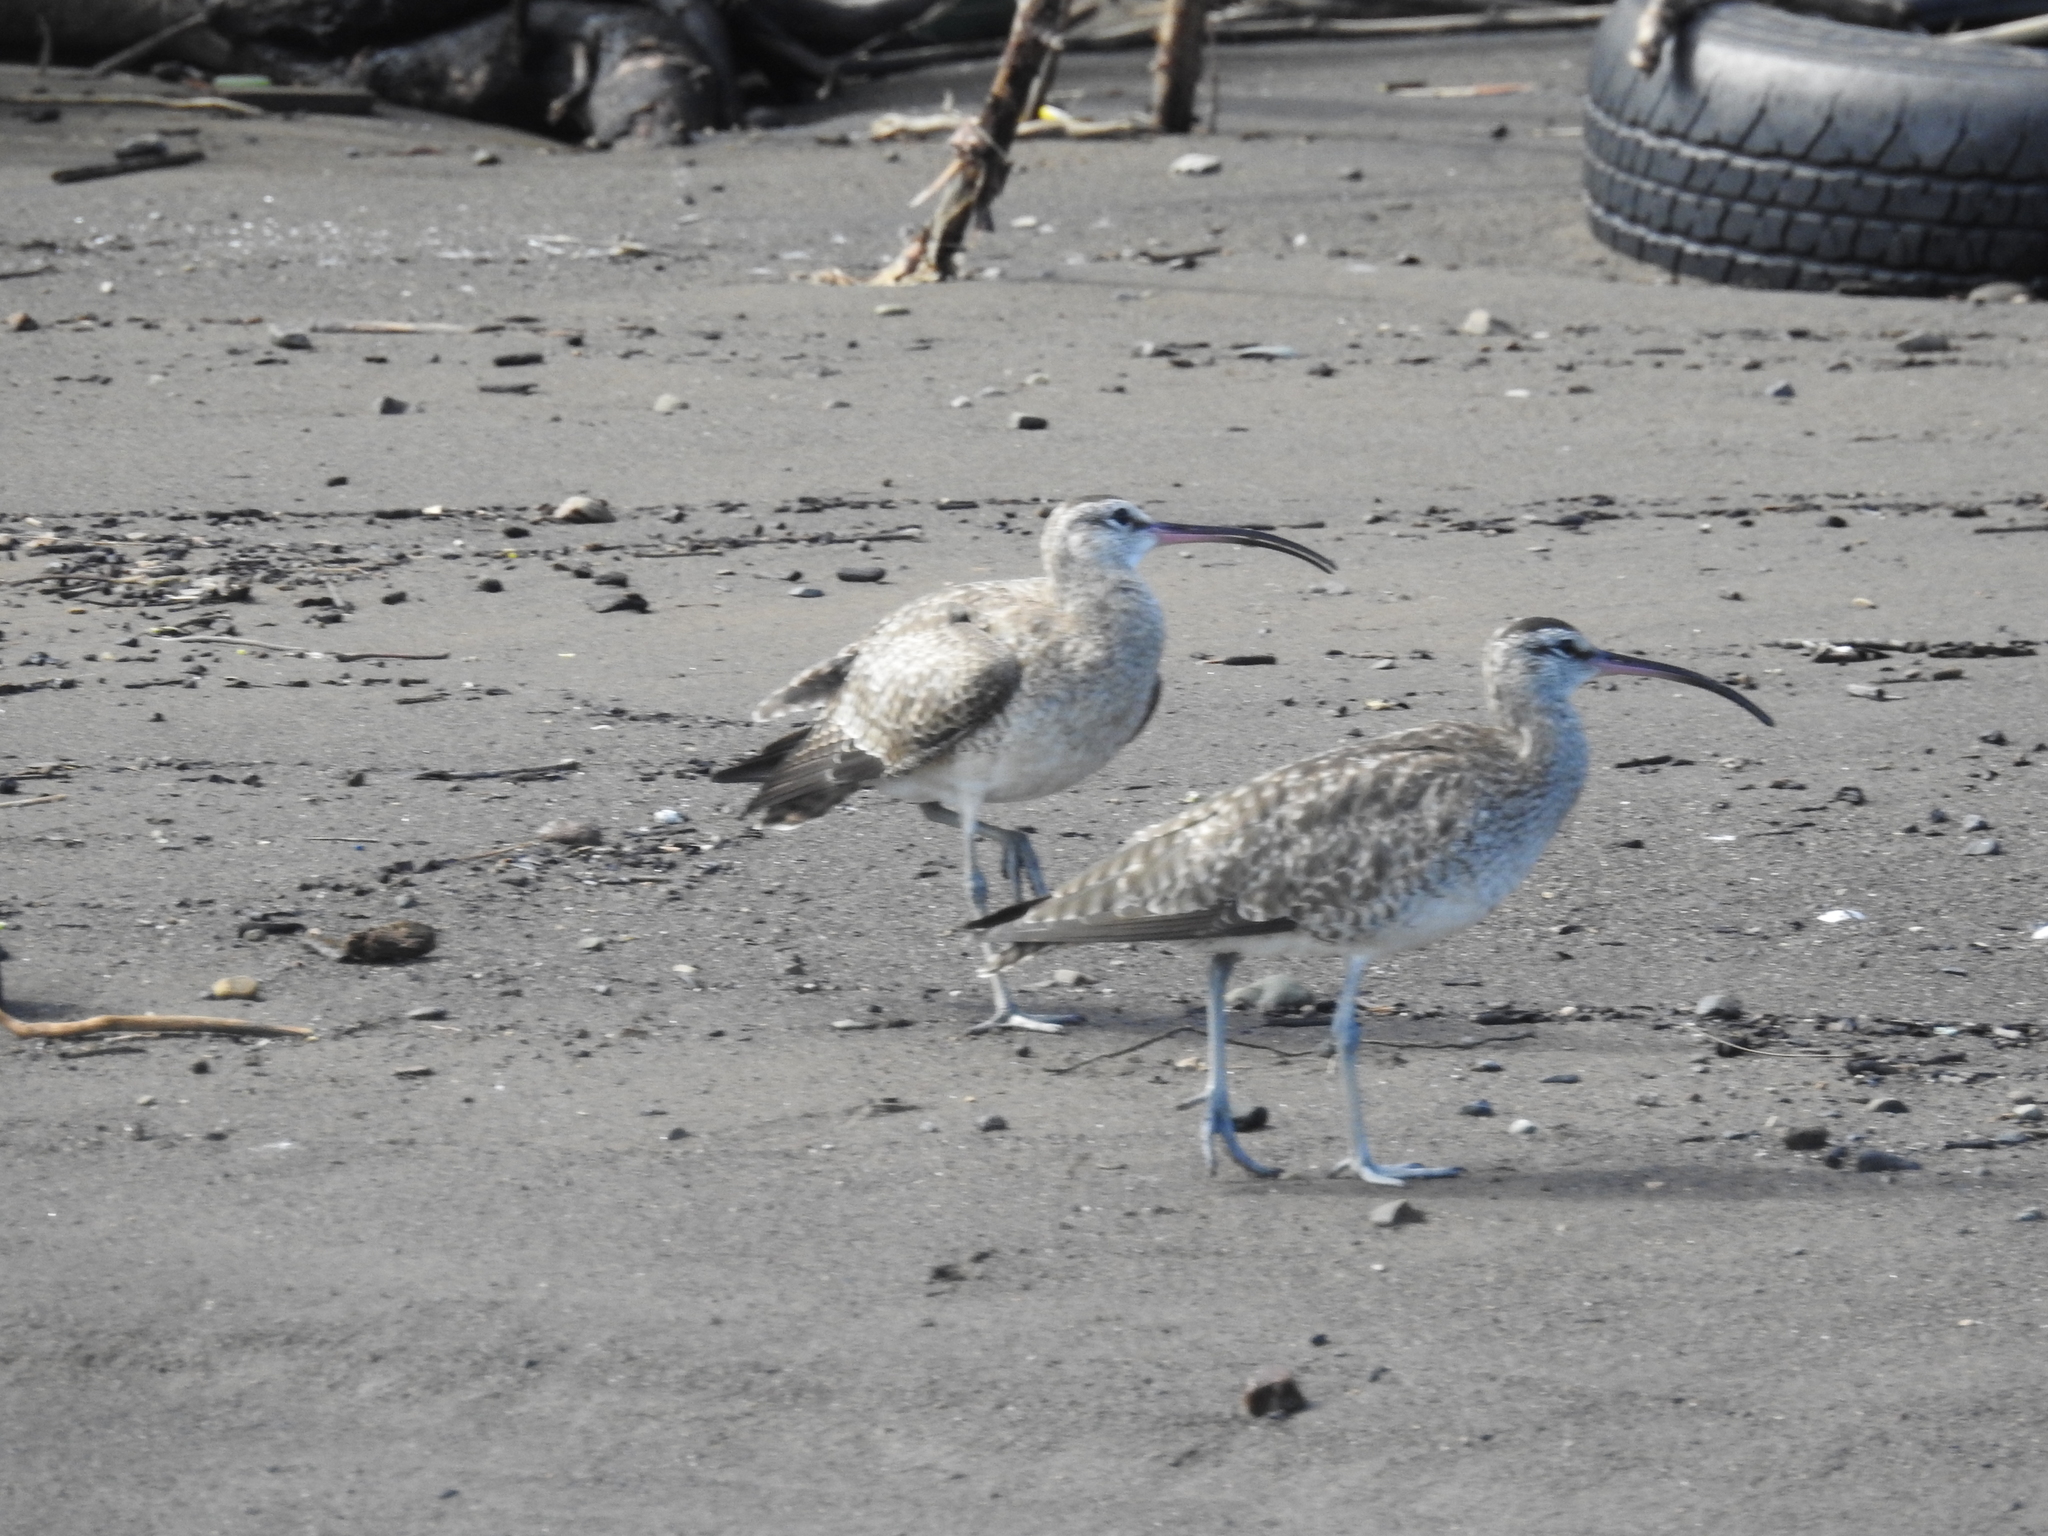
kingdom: Animalia
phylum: Chordata
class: Aves
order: Charadriiformes
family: Scolopacidae
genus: Numenius
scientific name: Numenius phaeopus
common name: Whimbrel
